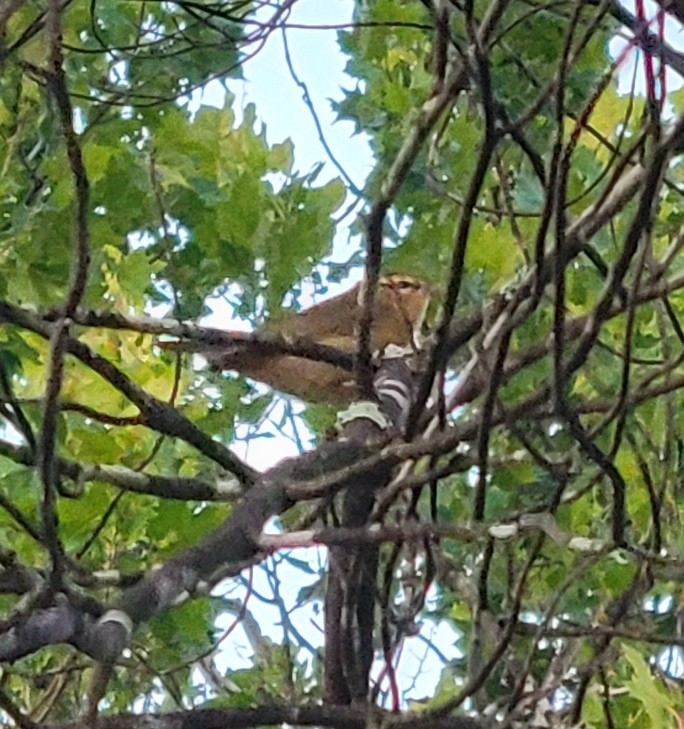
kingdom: Animalia
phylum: Chordata
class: Aves
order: Passeriformes
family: Parulidae
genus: Helmitheros
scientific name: Helmitheros vermivorum
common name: Worm-eating warbler
